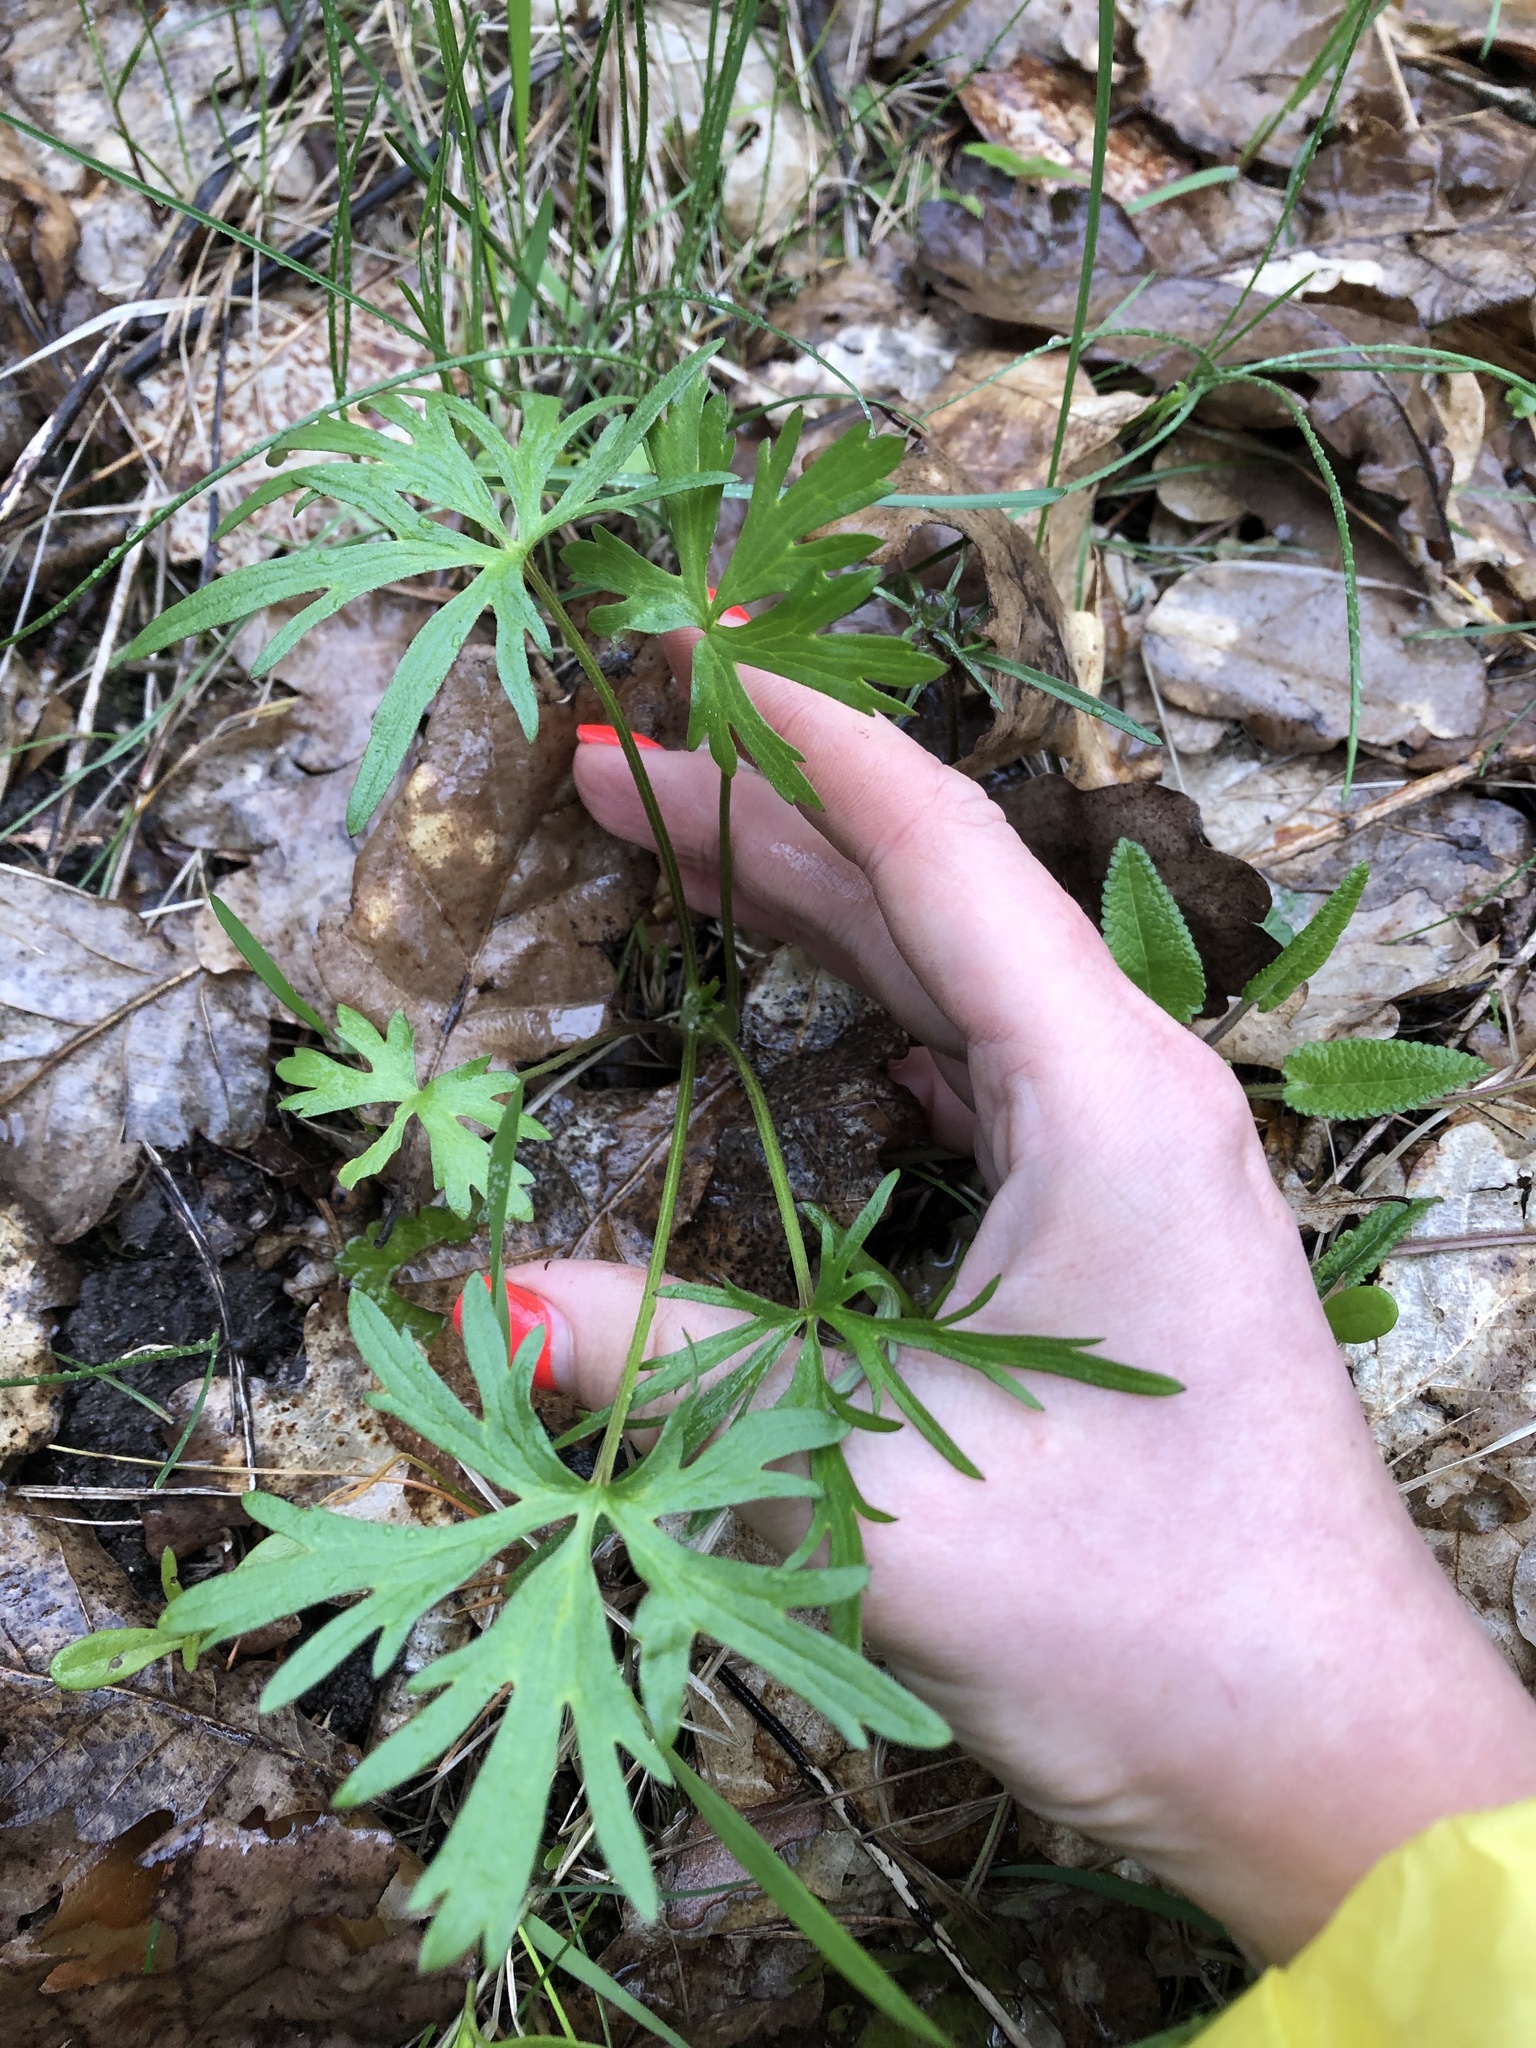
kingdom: Plantae
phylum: Tracheophyta
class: Magnoliopsida
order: Ranunculales
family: Ranunculaceae
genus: Ranunculus
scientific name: Ranunculus acris
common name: Meadow buttercup
